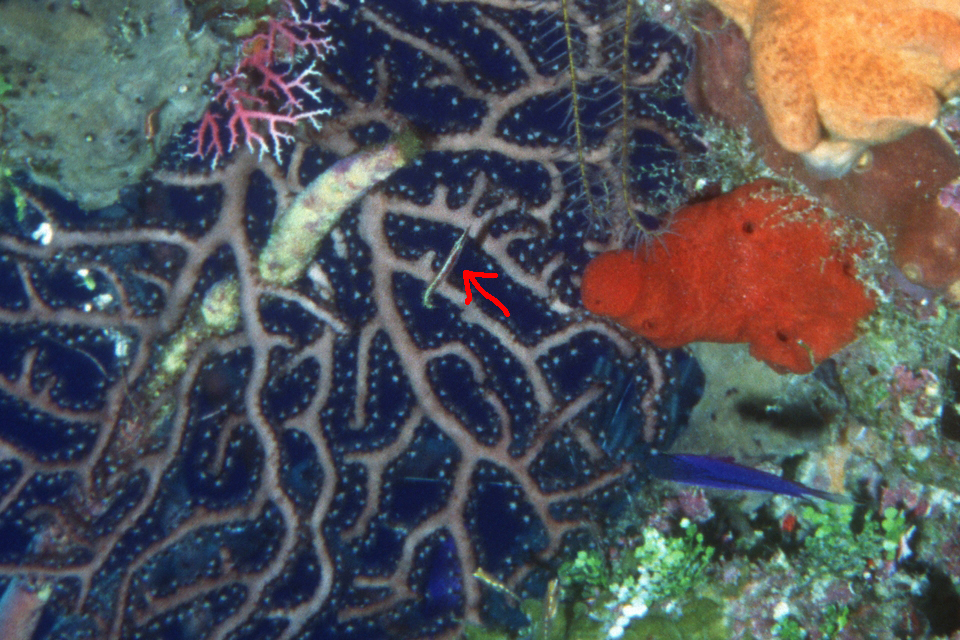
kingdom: Animalia
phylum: Chordata
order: Perciformes
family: Chaenopsidae
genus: Lucayablennius
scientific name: Lucayablennius zingaro
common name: Arrow blenny
